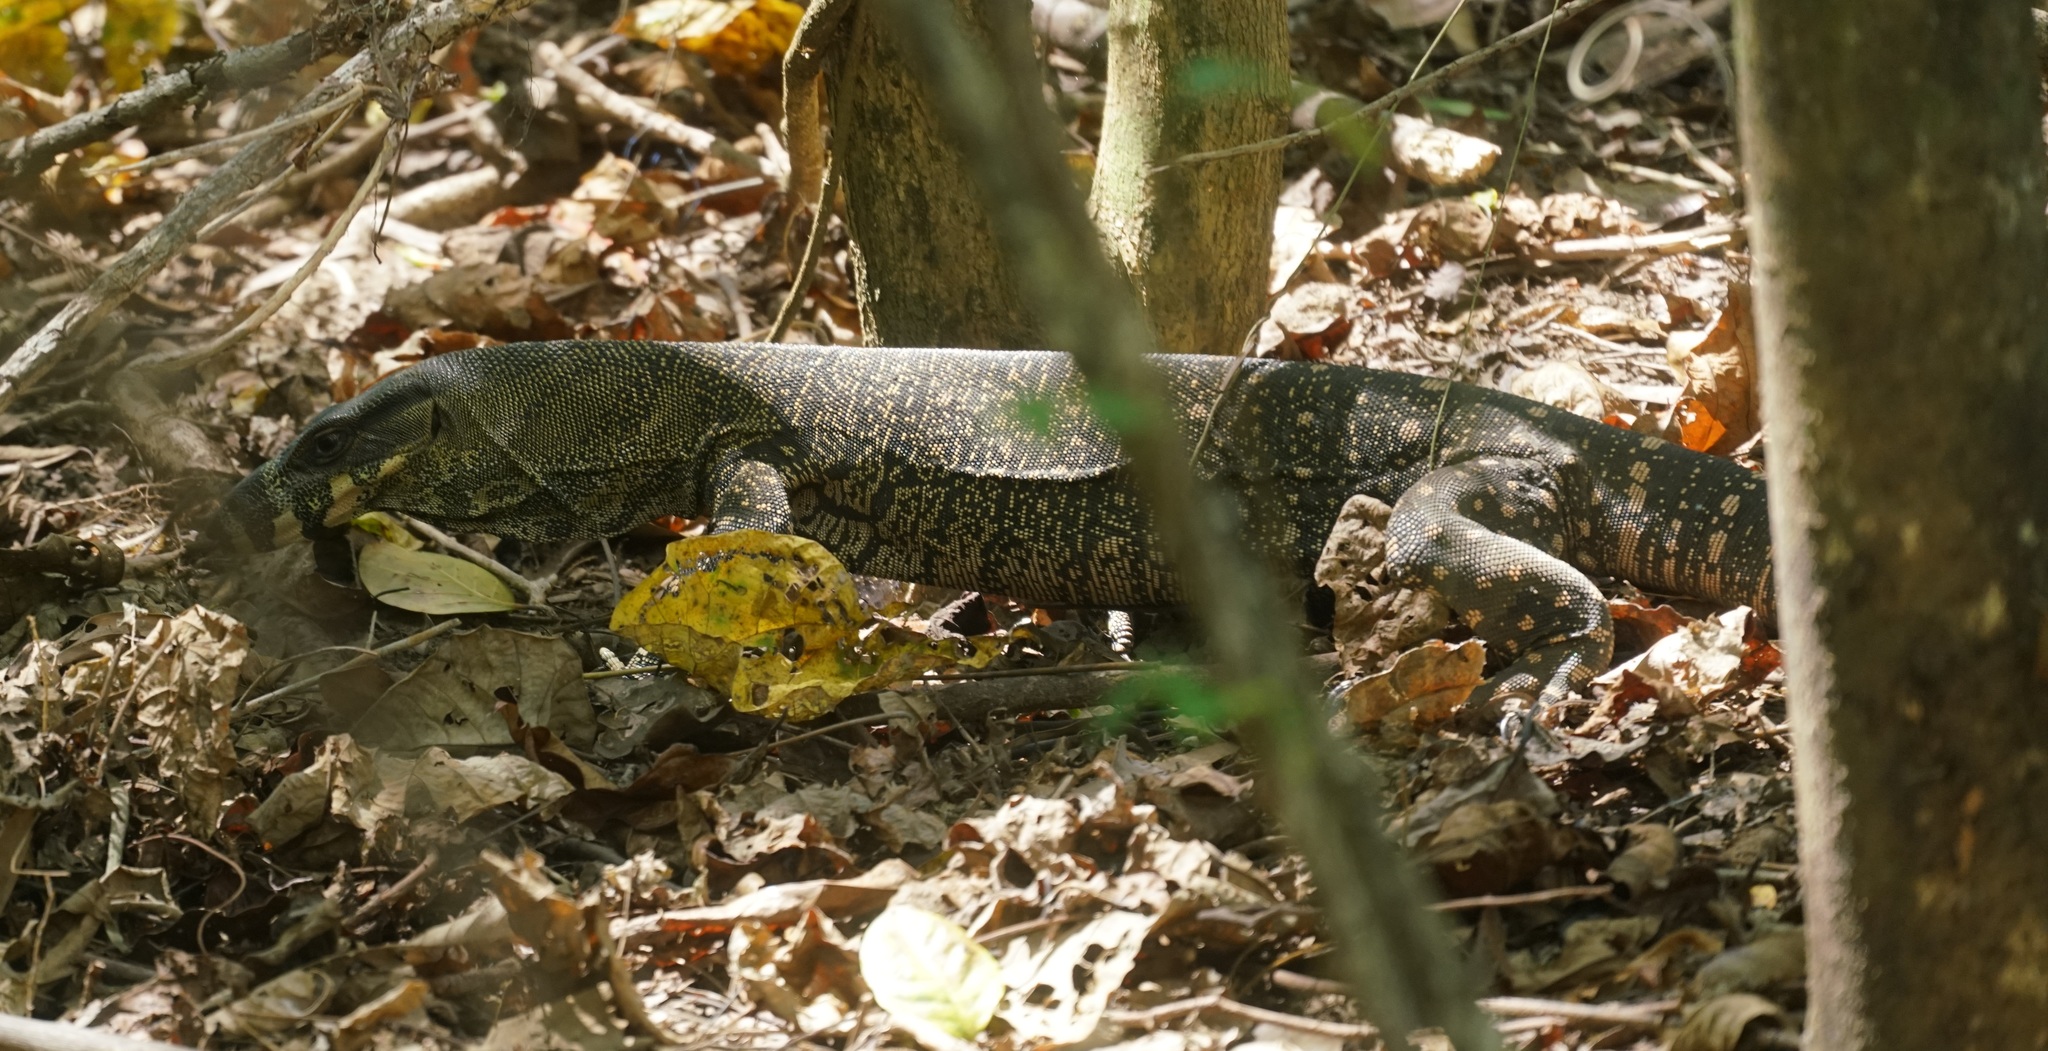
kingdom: Animalia
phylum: Chordata
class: Squamata
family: Varanidae
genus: Varanus
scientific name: Varanus varius
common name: Lace monitor
